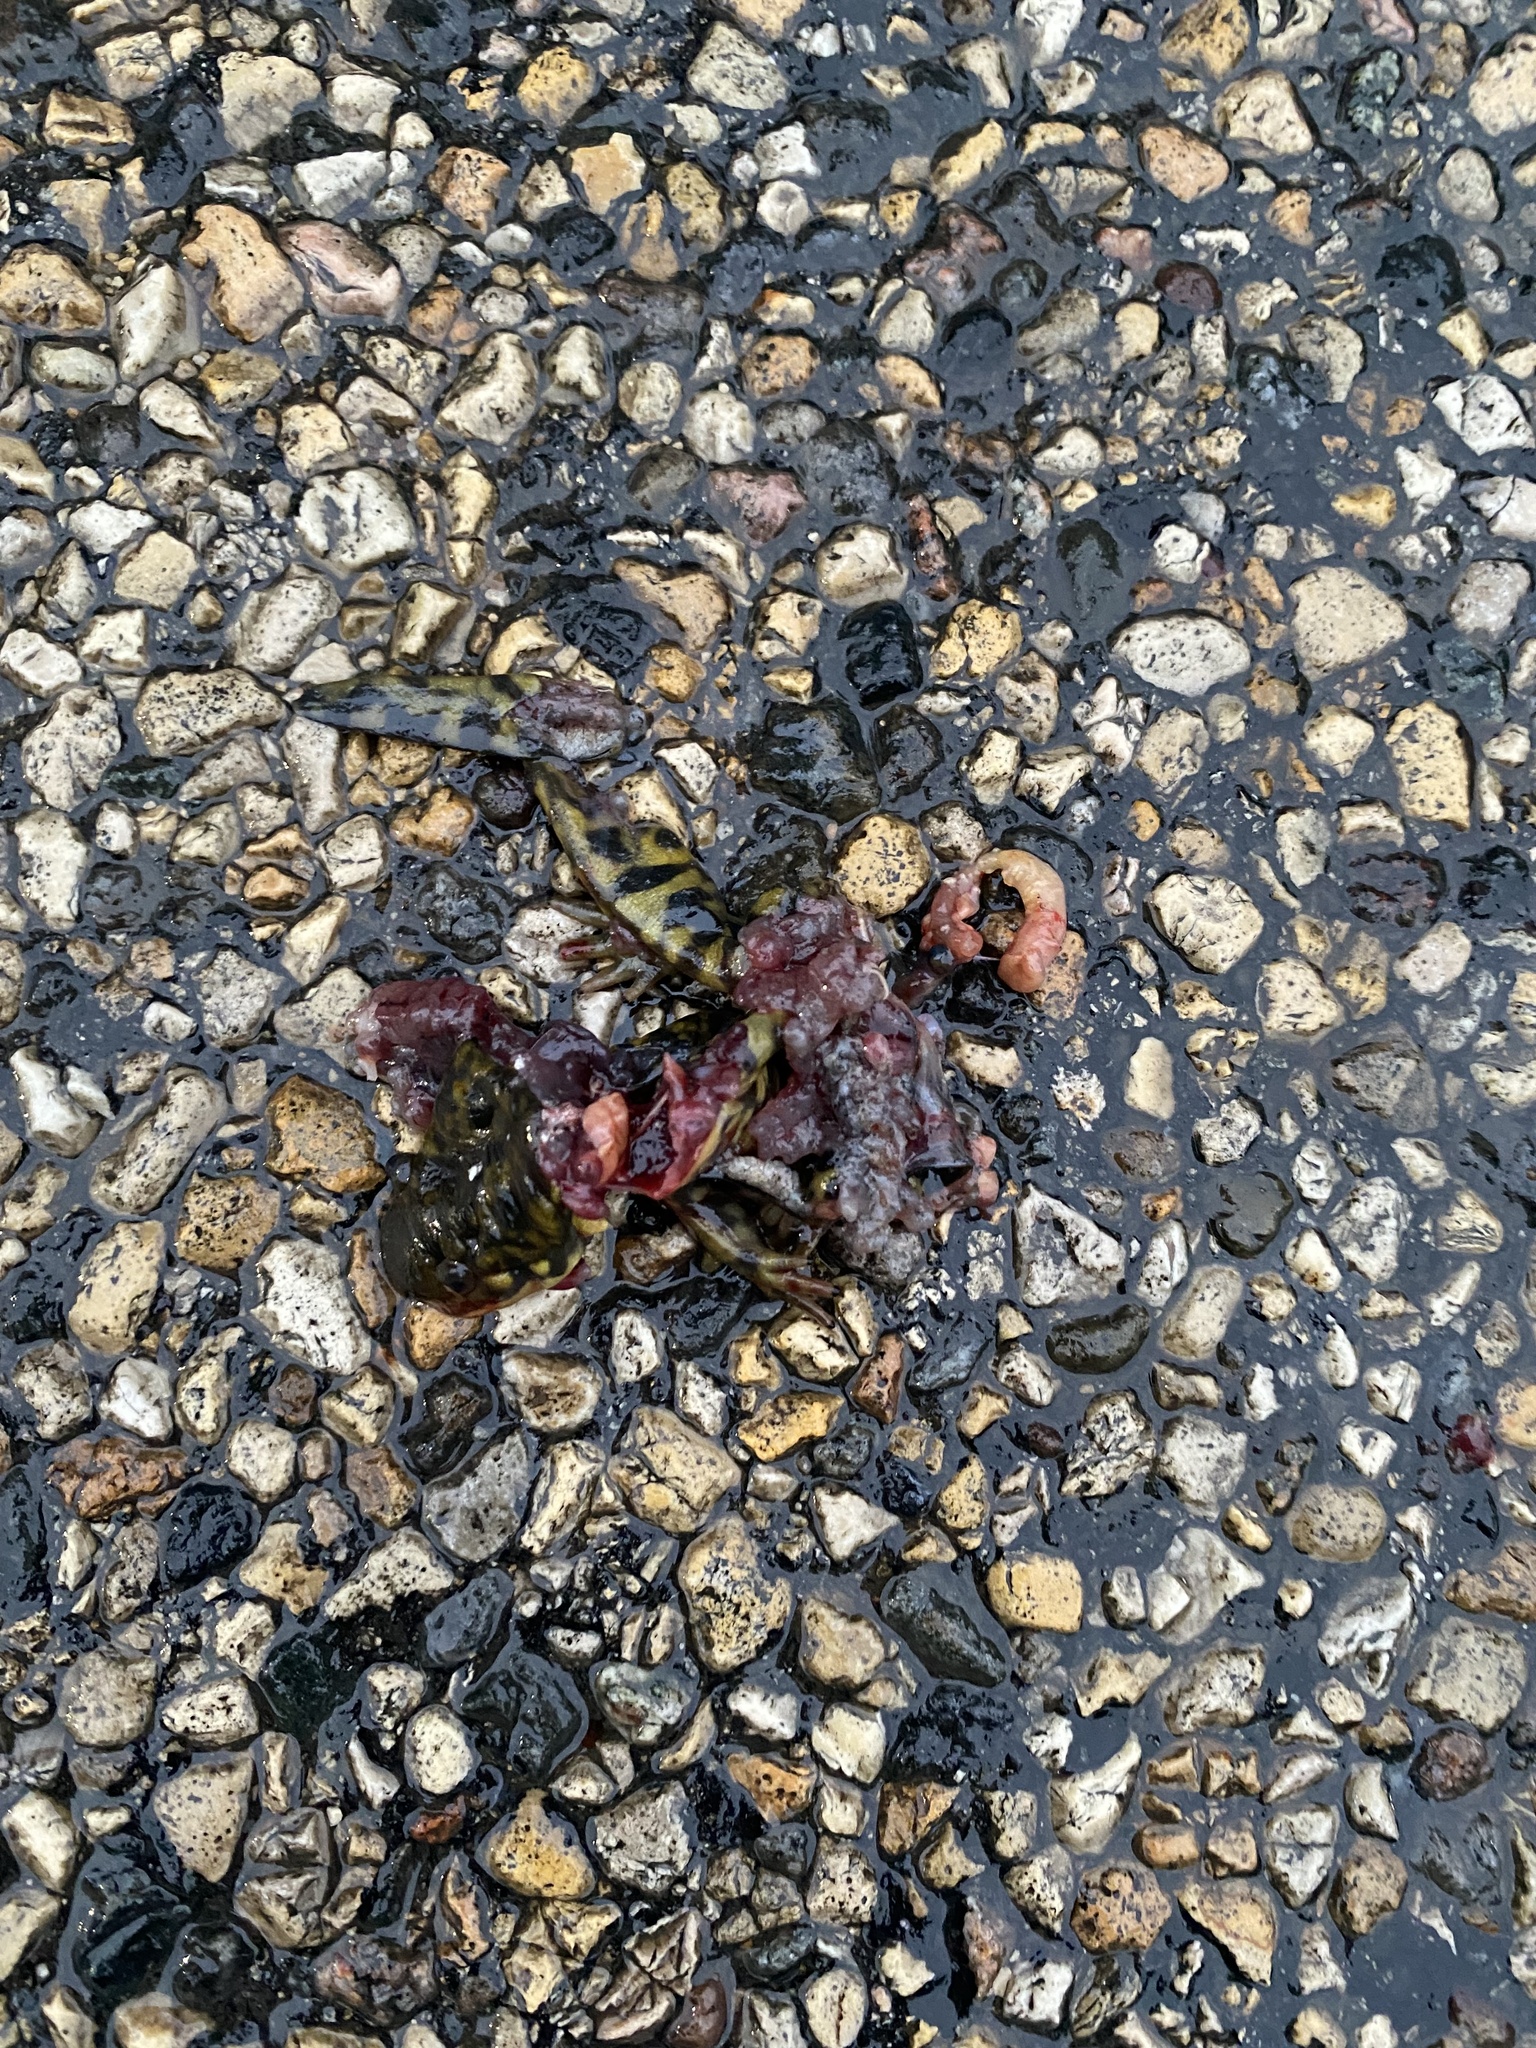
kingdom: Animalia
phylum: Chordata
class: Amphibia
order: Caudata
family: Ambystomatidae
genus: Ambystoma
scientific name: Ambystoma mavortium
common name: Western tiger salamander
